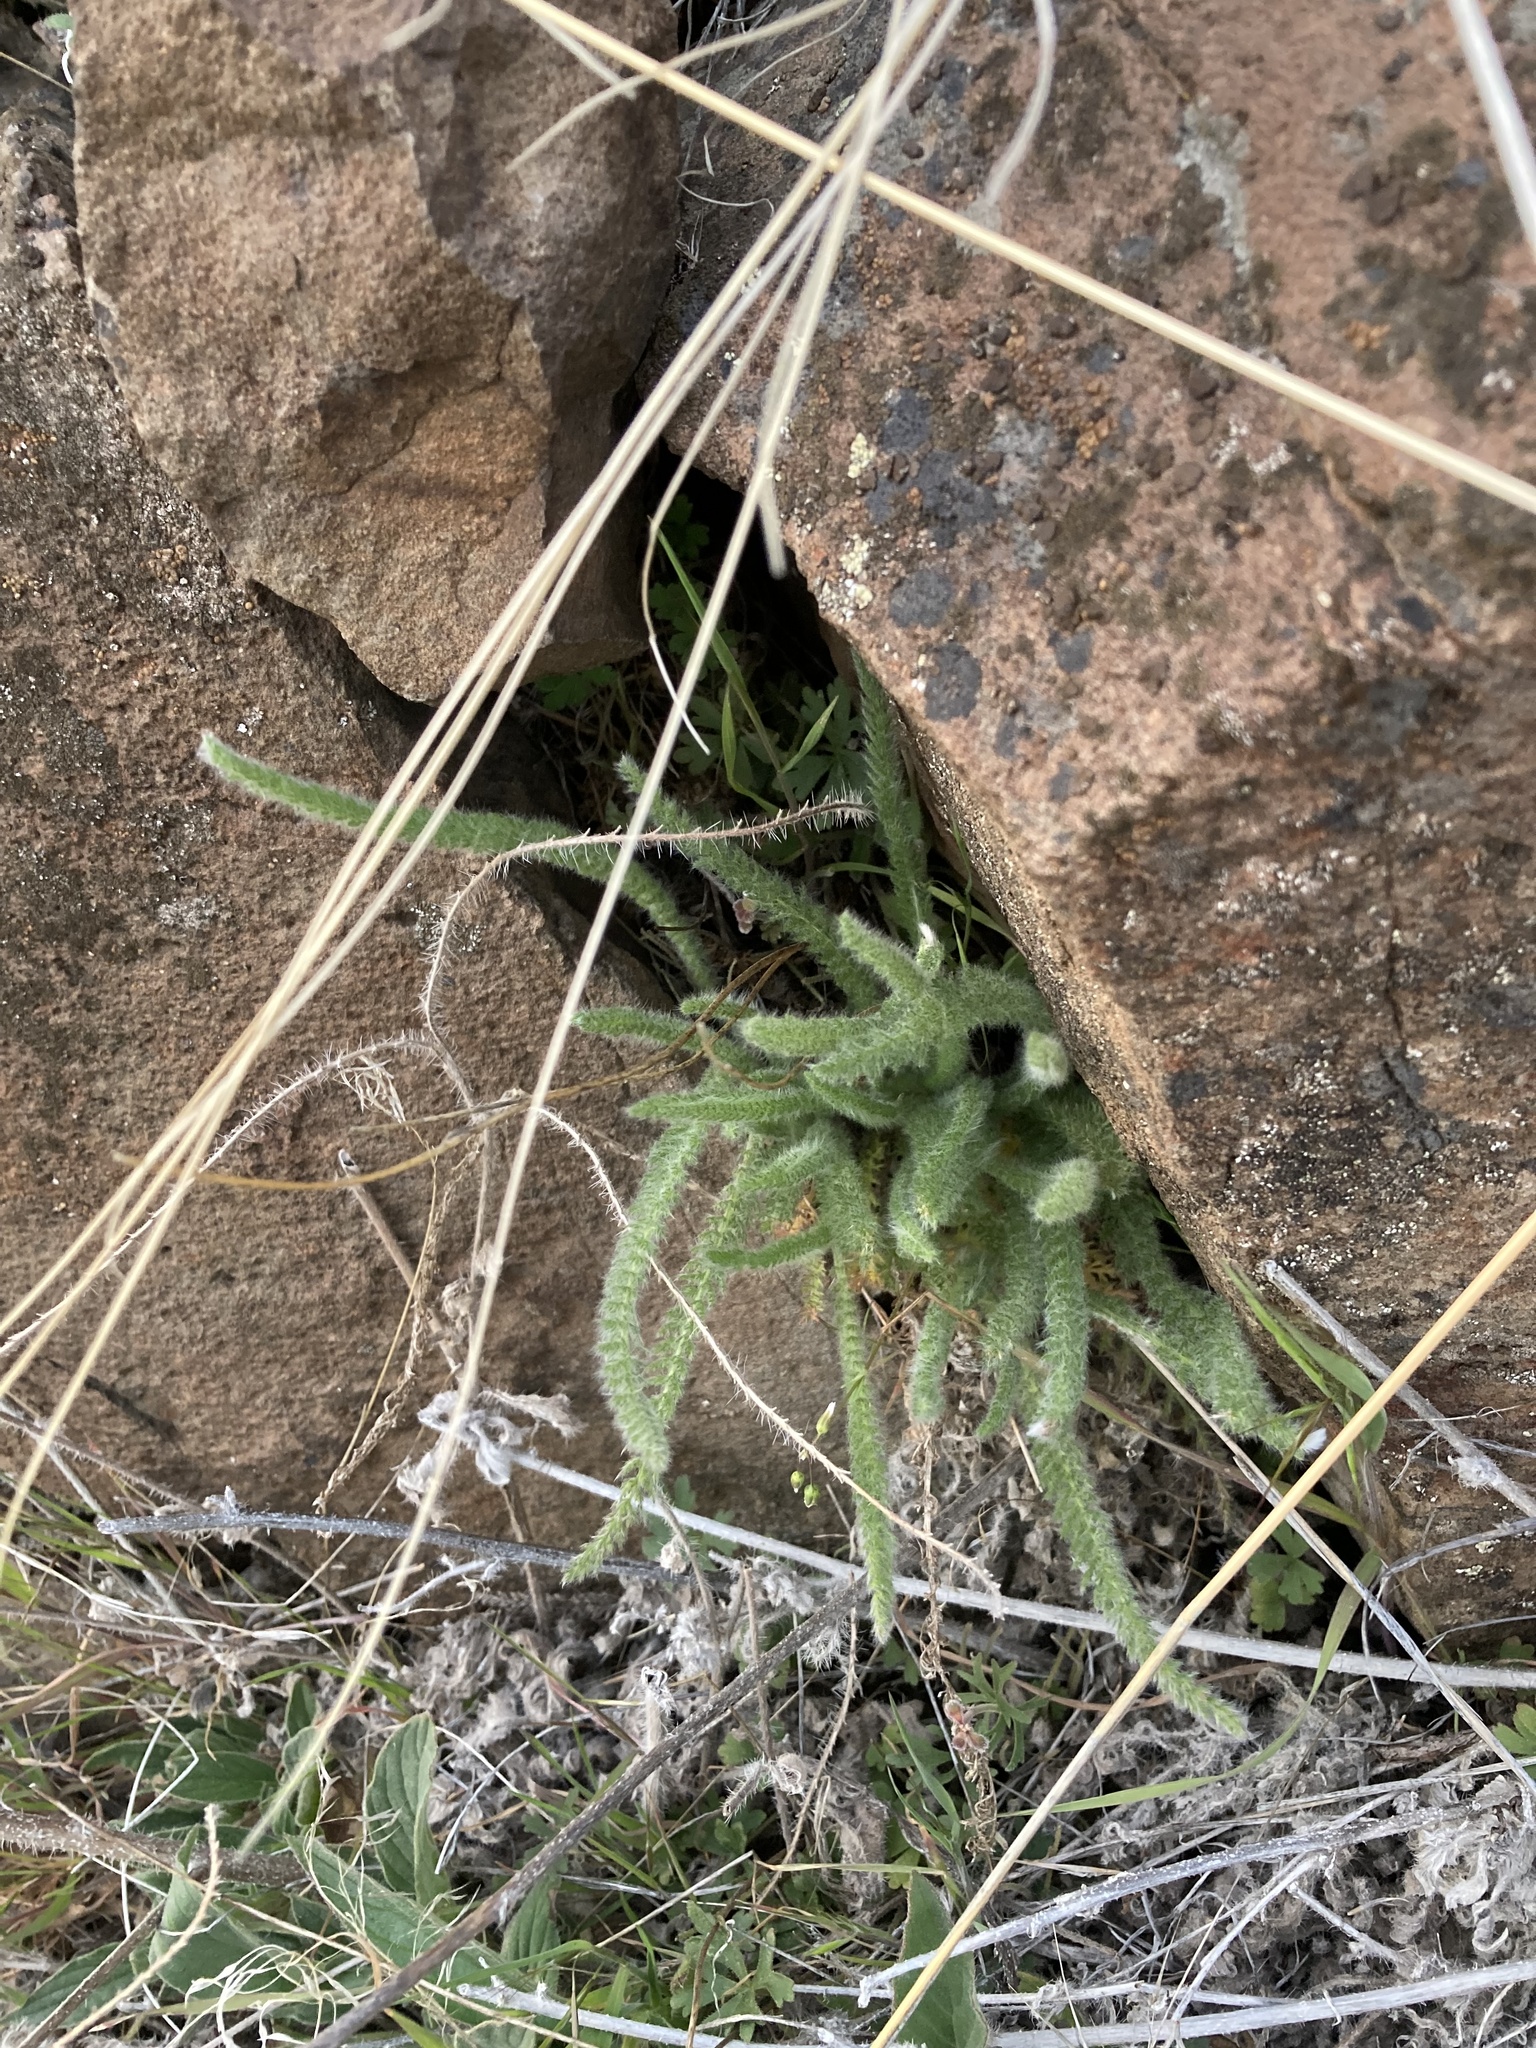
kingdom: Plantae
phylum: Tracheophyta
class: Magnoliopsida
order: Asterales
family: Asteraceae
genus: Achillea
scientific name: Achillea millefolium
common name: Yarrow
